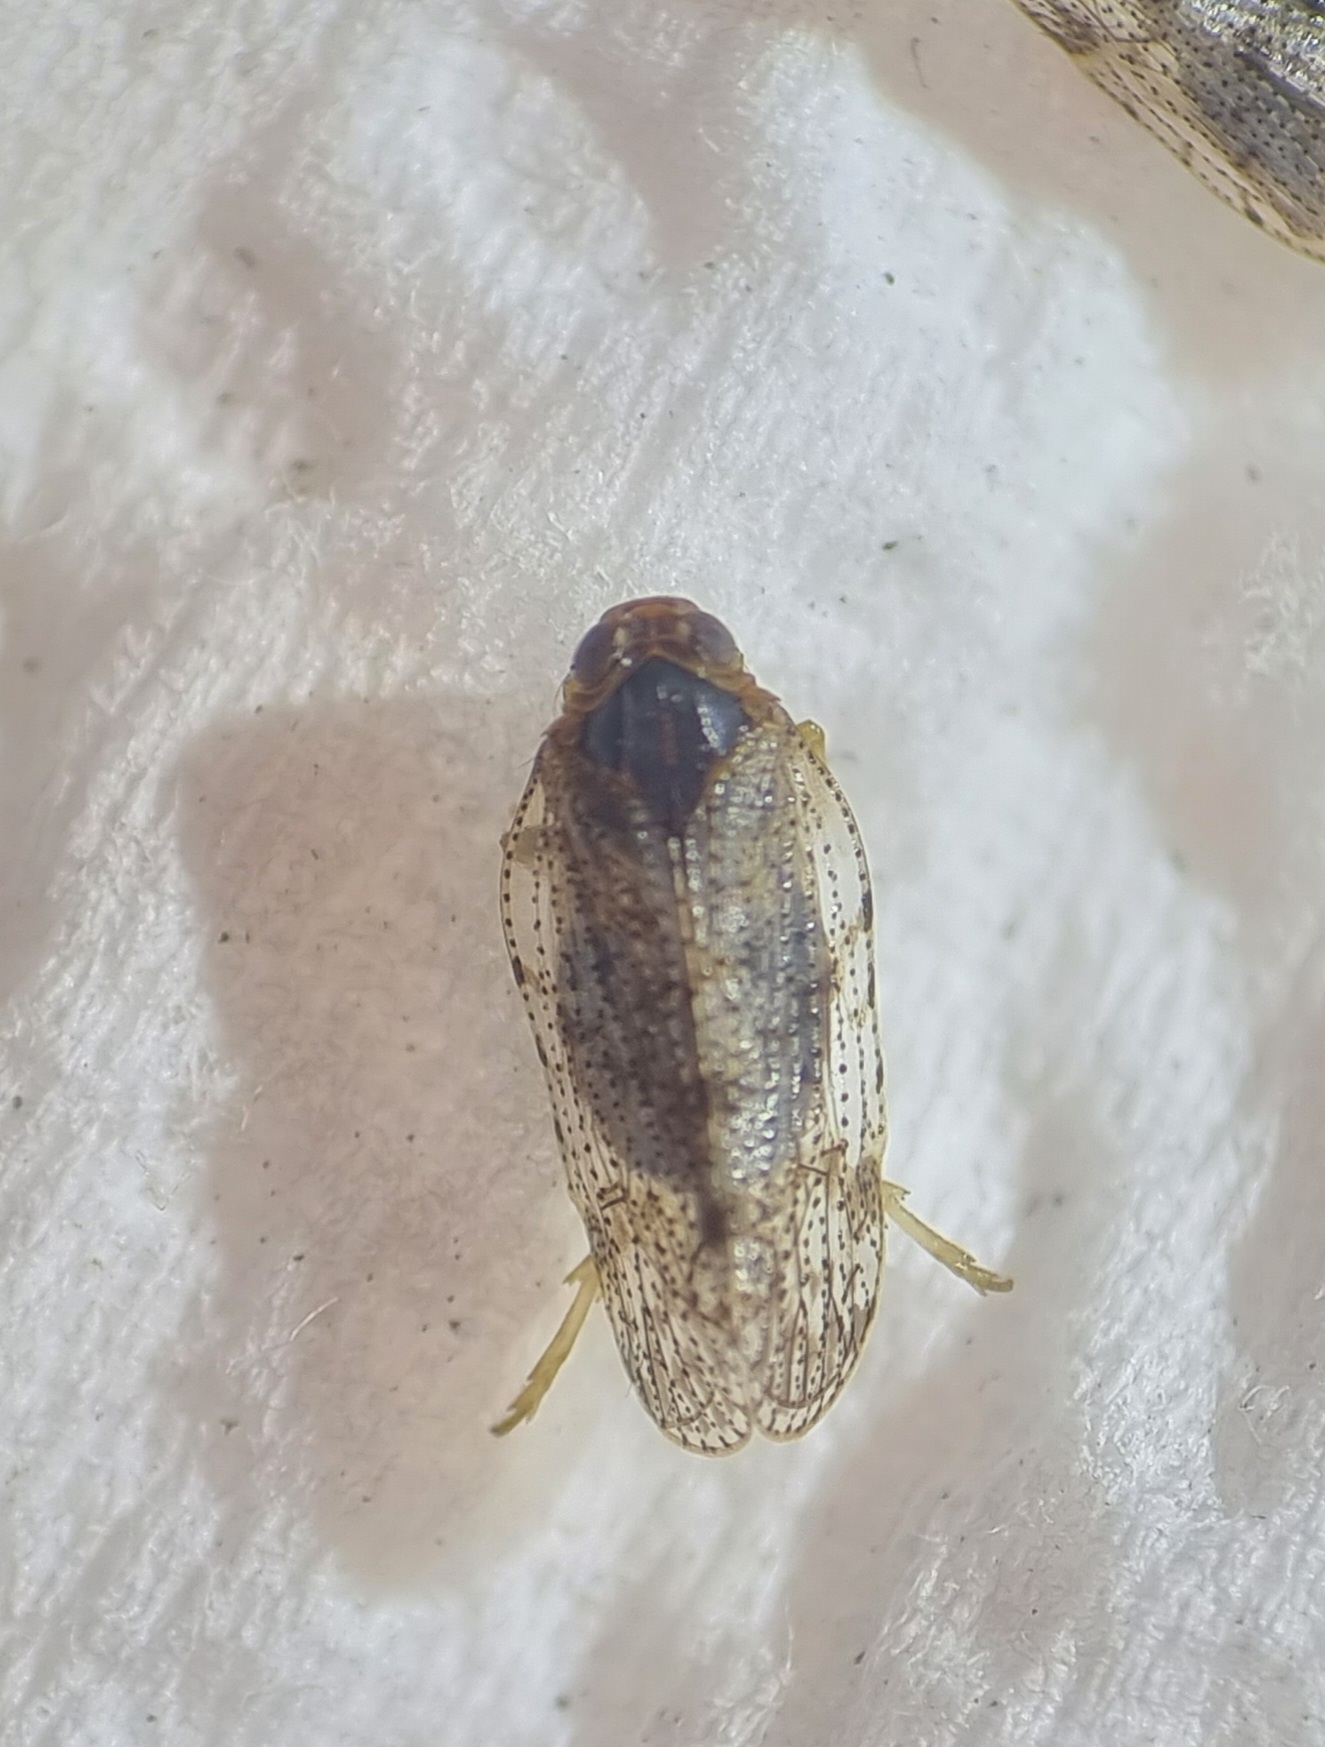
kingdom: Animalia
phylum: Arthropoda
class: Insecta
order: Hemiptera
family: Cixiidae
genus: Tachycixius
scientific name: Tachycixius pilosus
